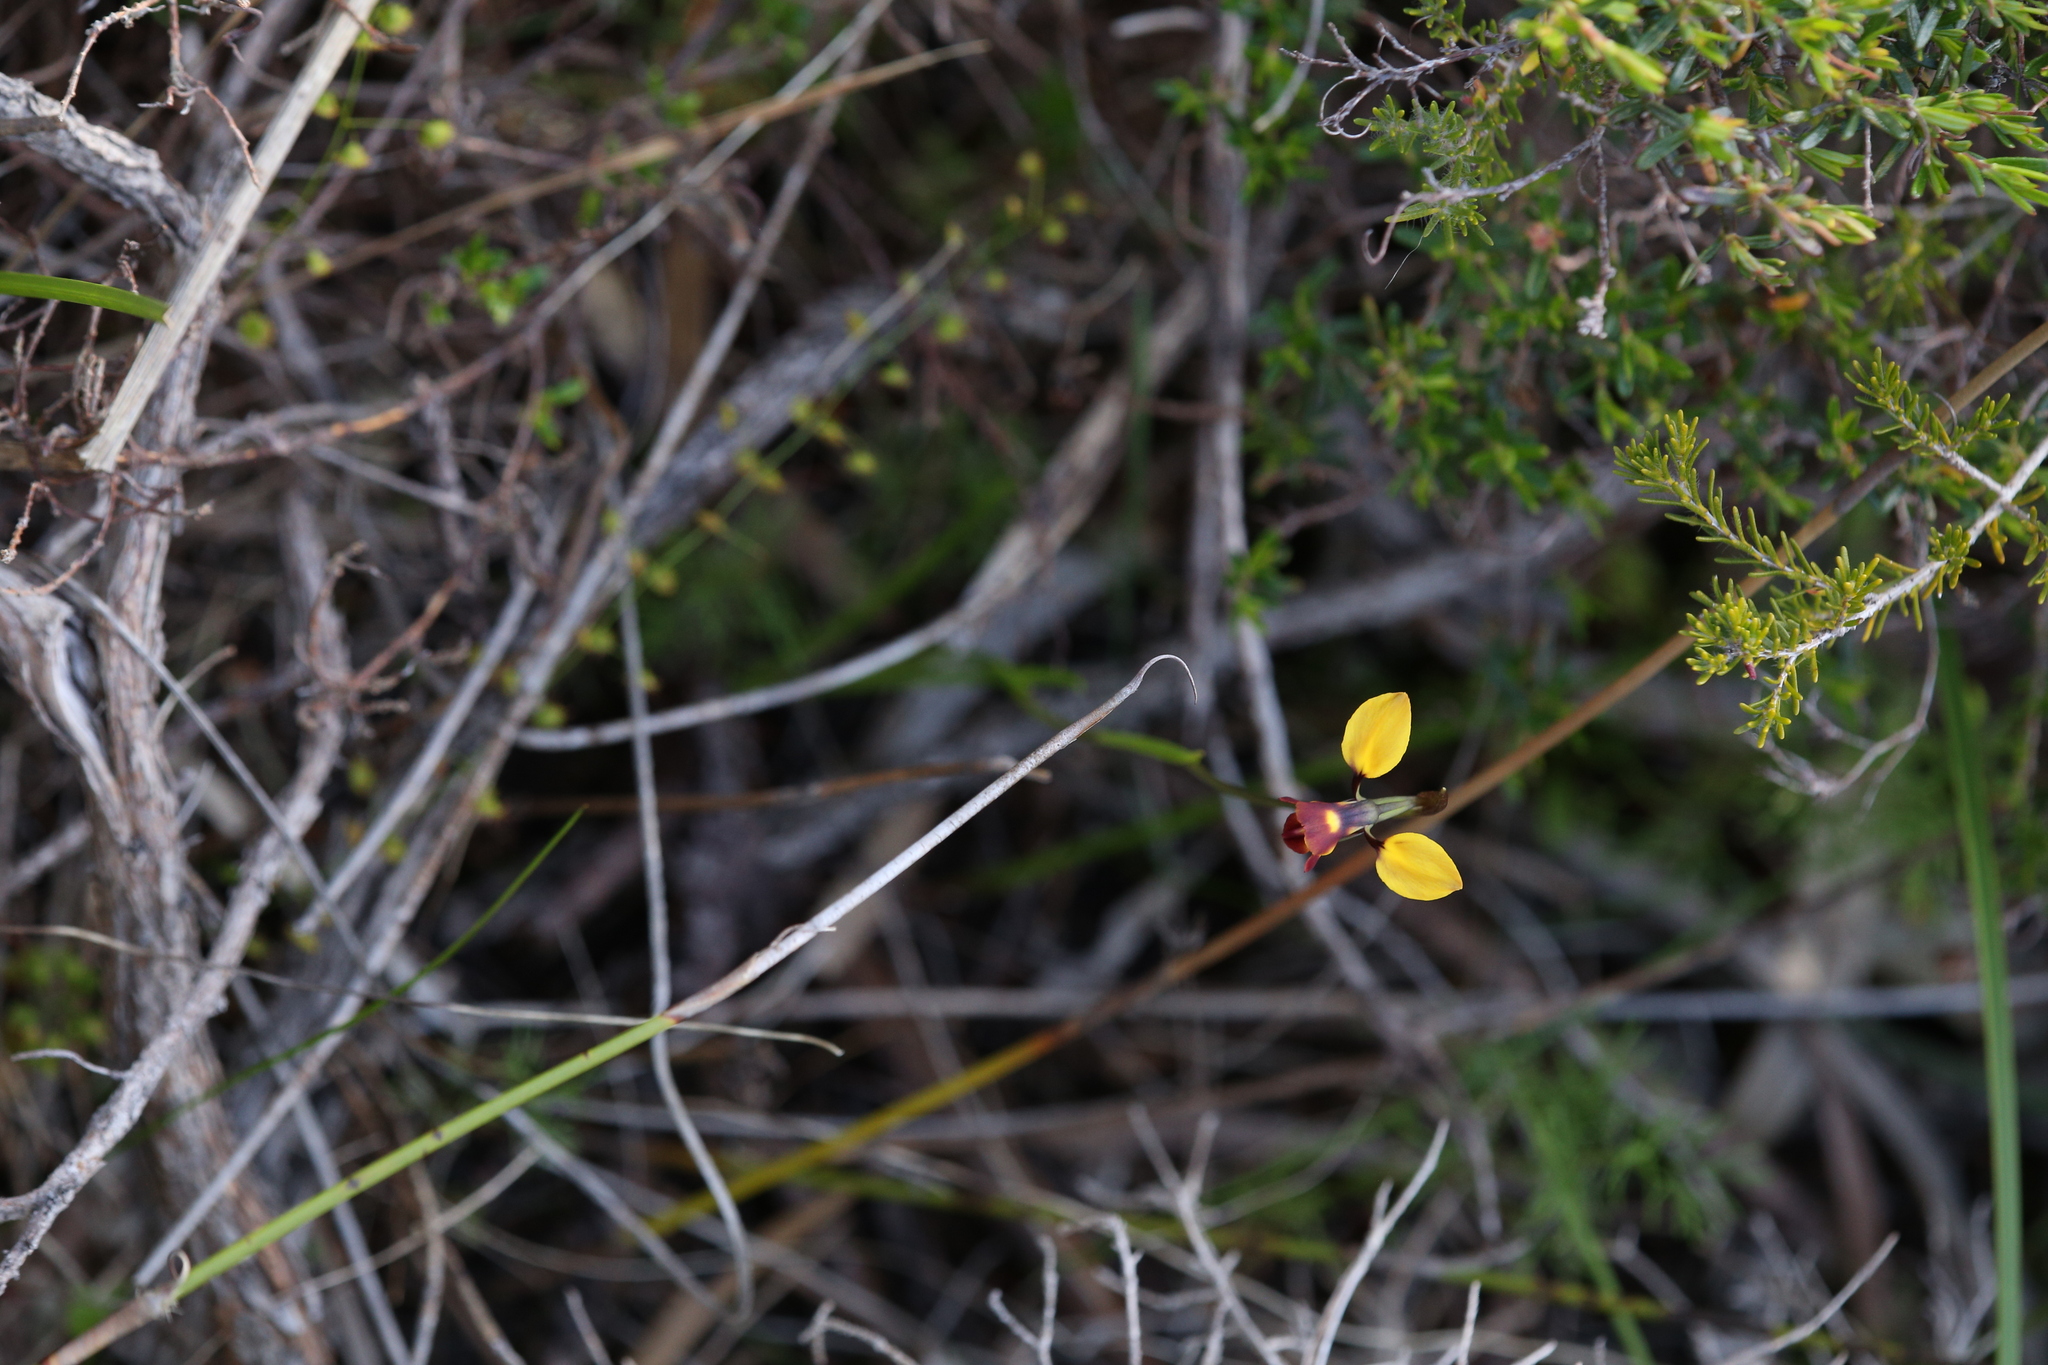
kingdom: Plantae
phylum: Tracheophyta
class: Liliopsida
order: Asparagales
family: Orchidaceae
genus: Diuris
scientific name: Diuris corymbosa
